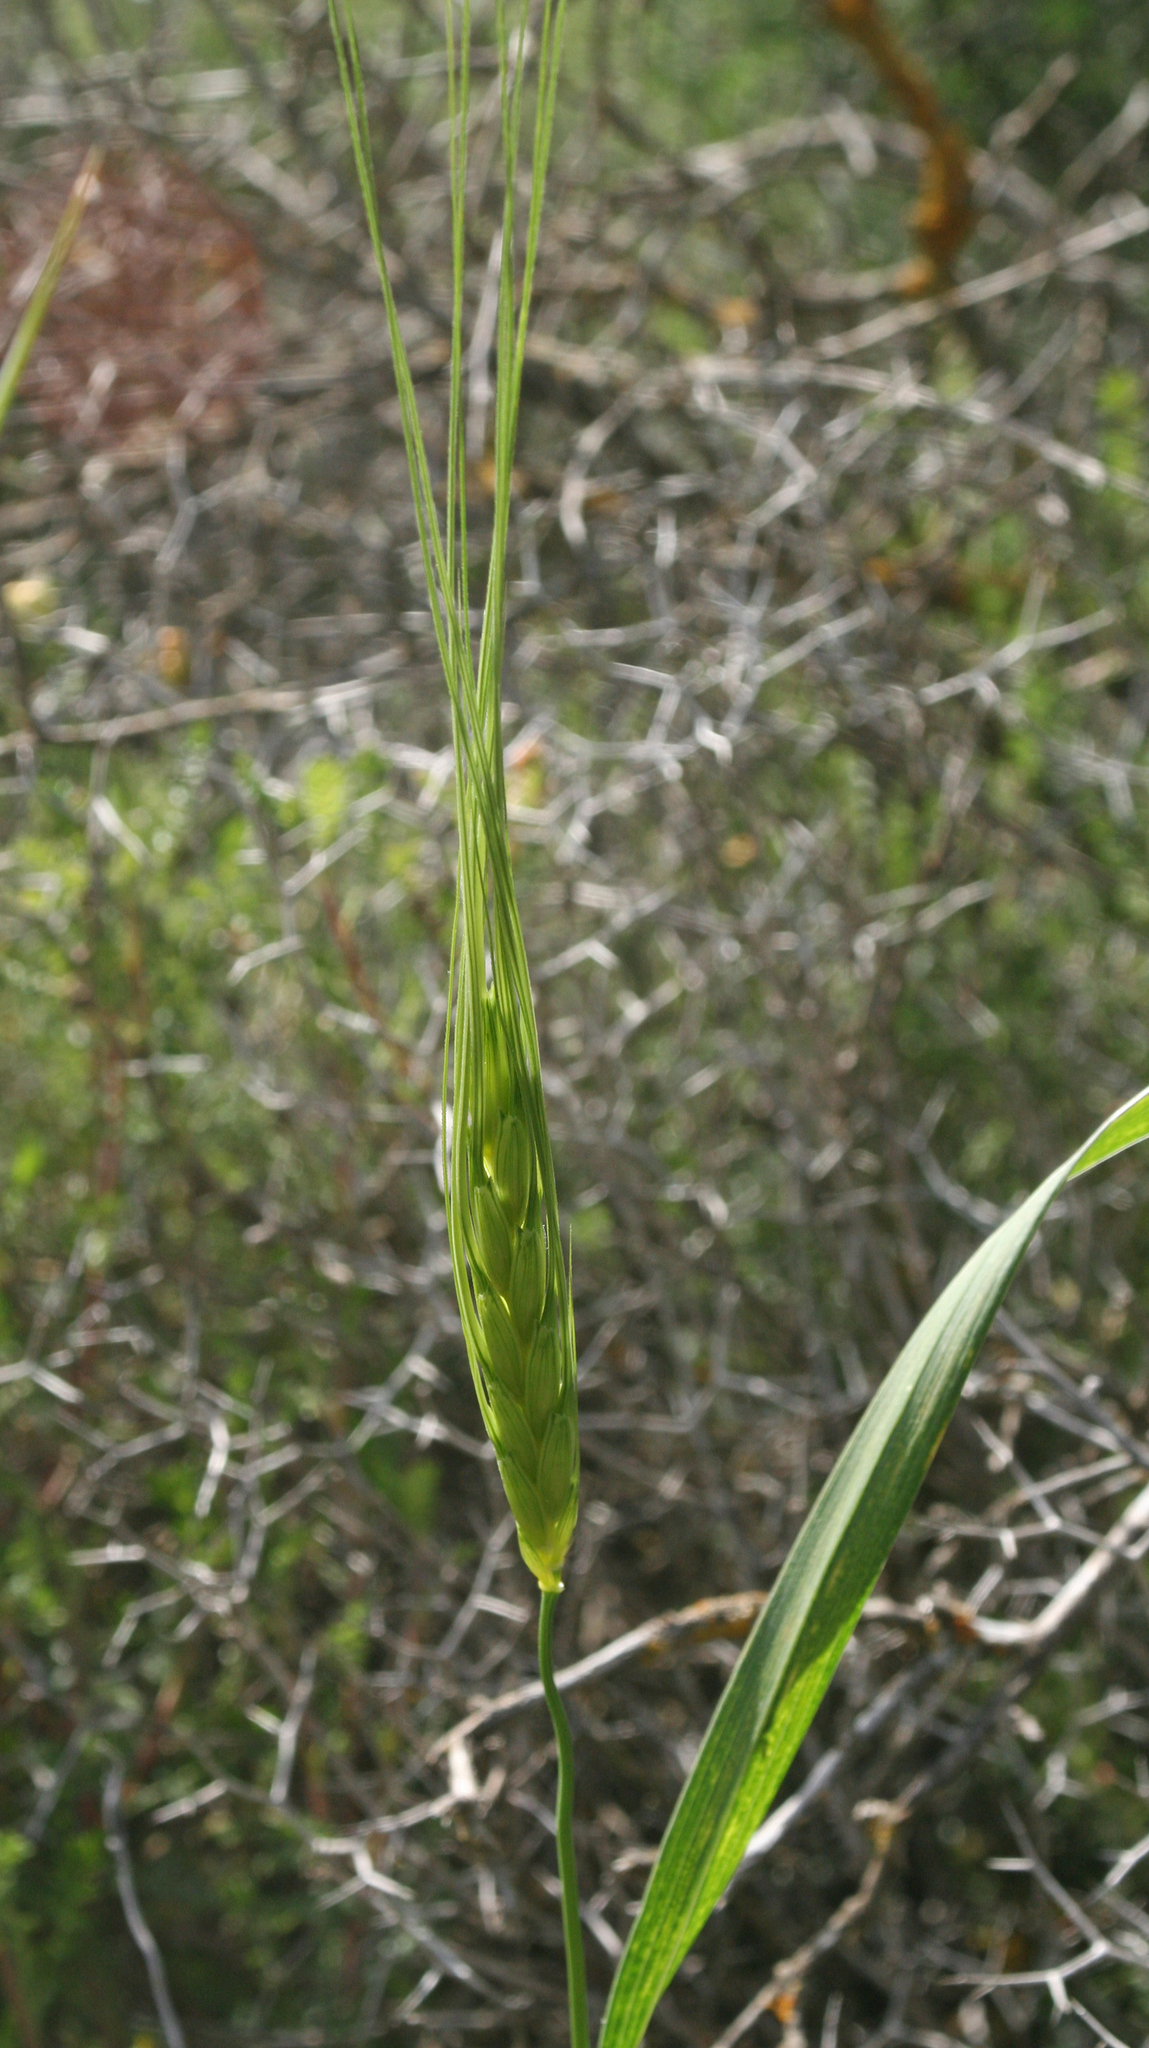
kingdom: Plantae
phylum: Tracheophyta
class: Liliopsida
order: Poales
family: Poaceae
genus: Triticum
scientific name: Triticum dicoccoides
